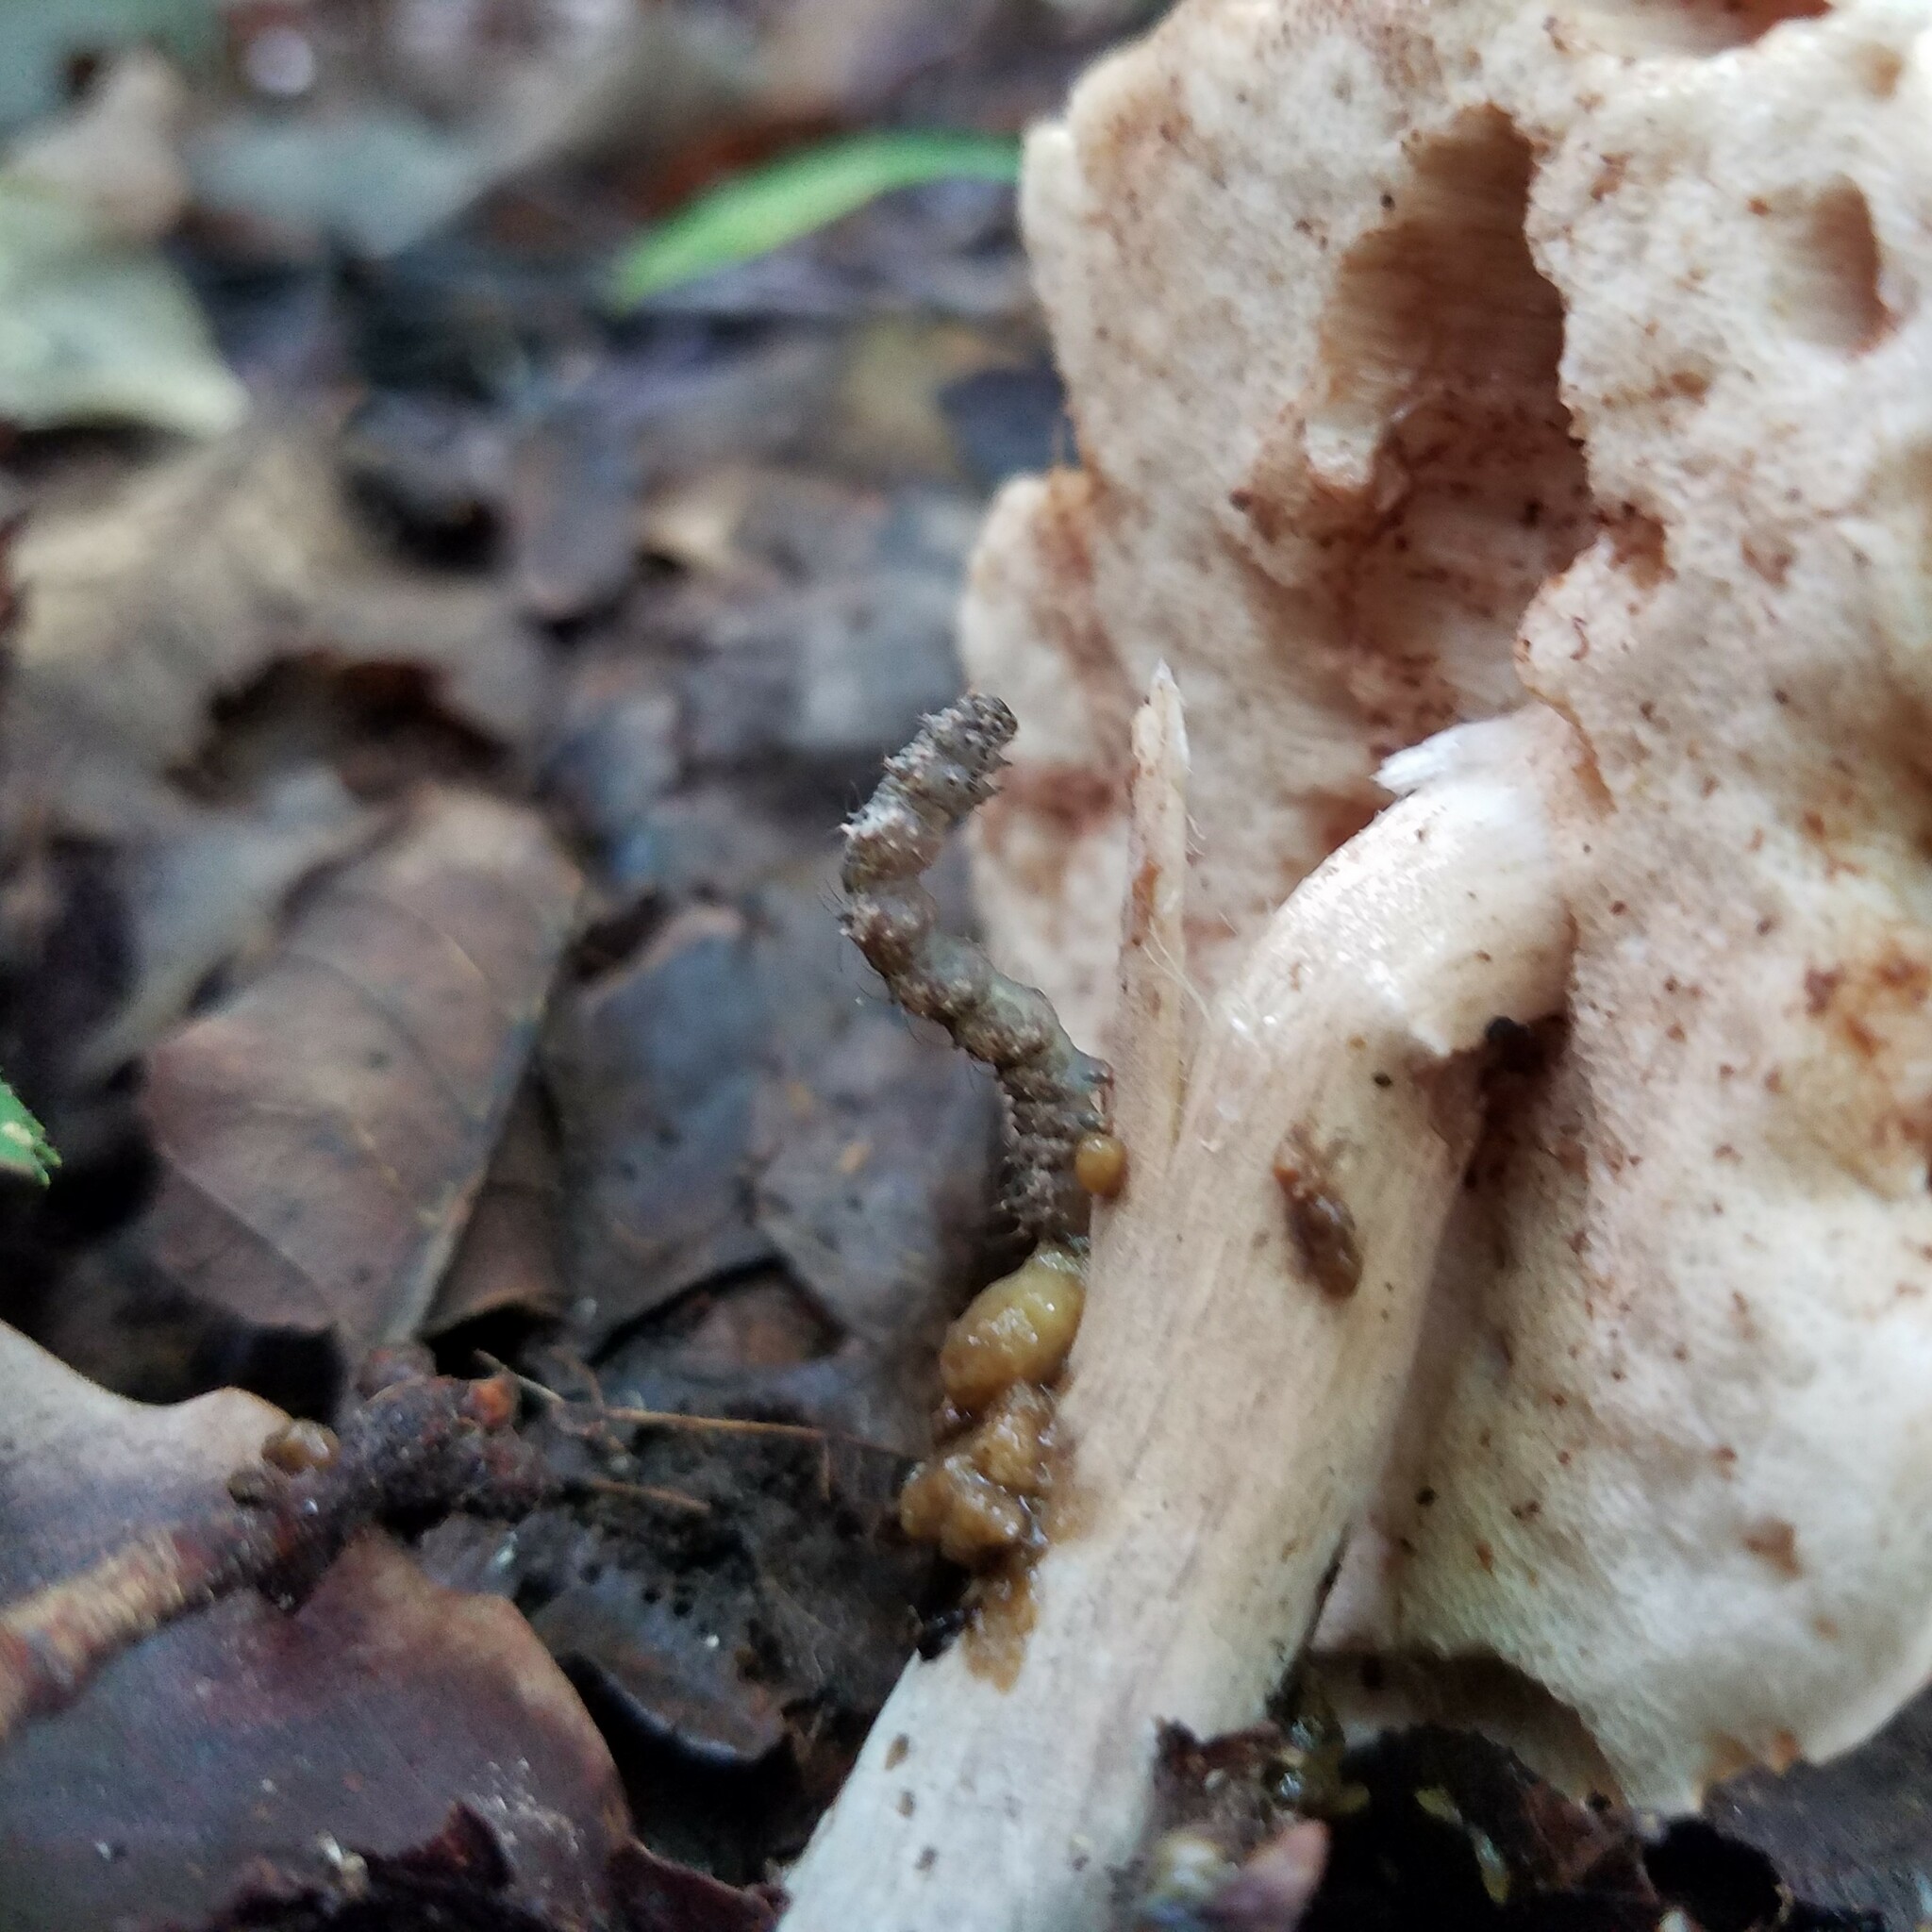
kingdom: Animalia
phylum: Arthropoda
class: Insecta
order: Lepidoptera
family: Erebidae
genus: Metalectra
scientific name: Metalectra discalis
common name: Common fungus moth
